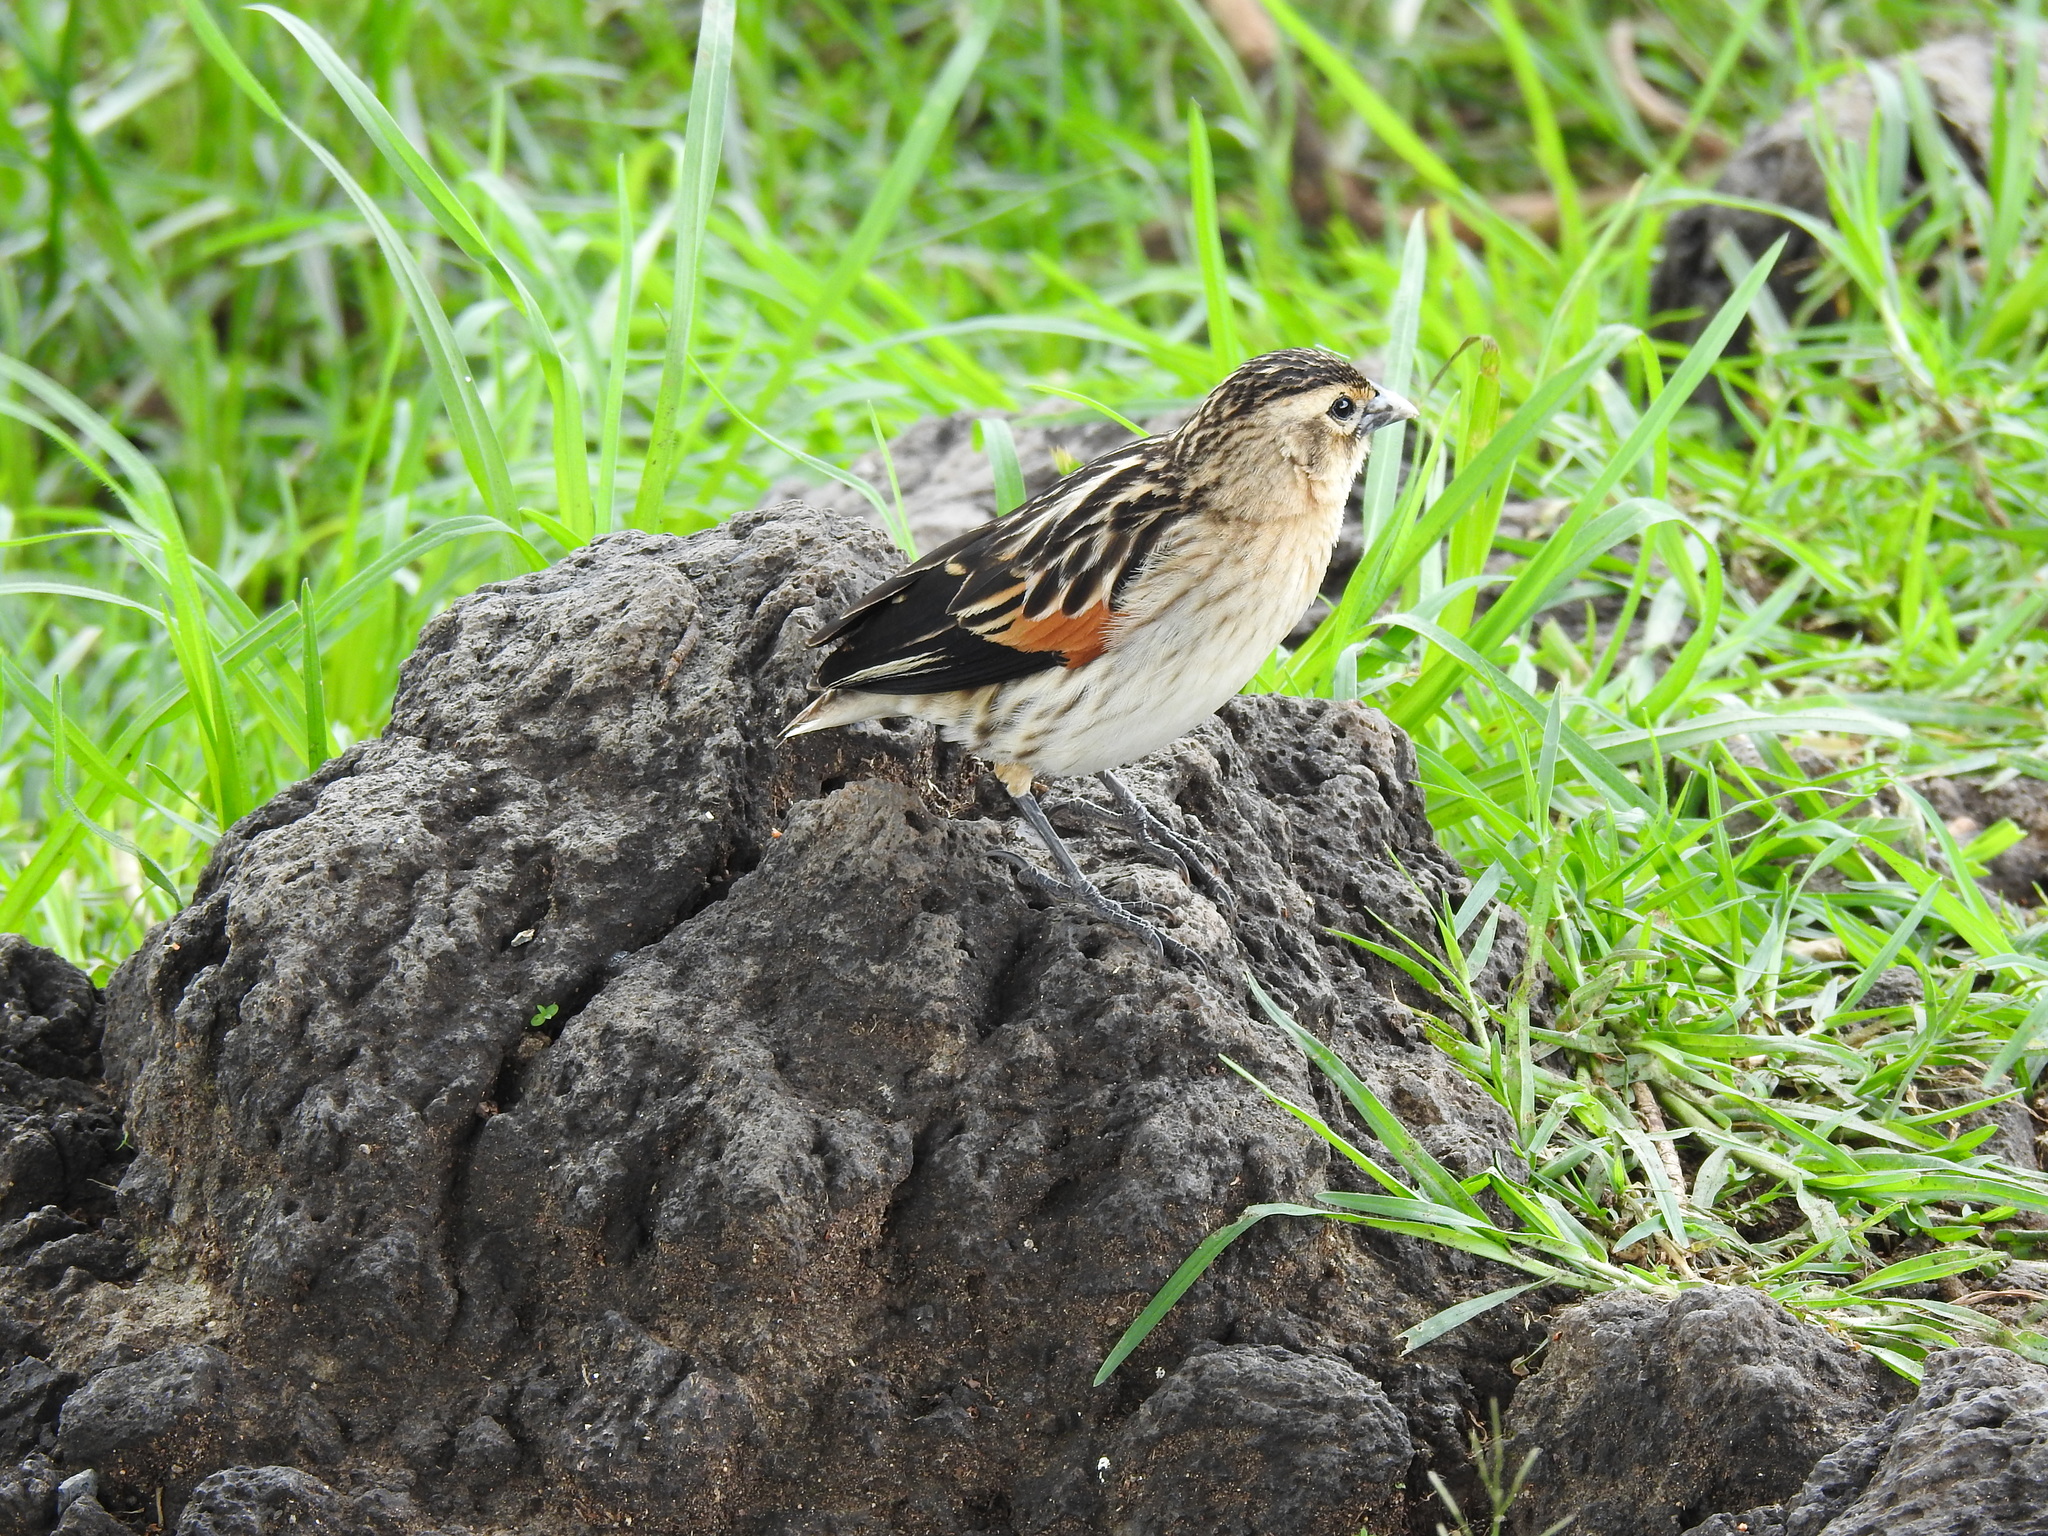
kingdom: Animalia
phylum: Chordata
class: Aves
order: Passeriformes
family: Ploceidae
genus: Euplectes
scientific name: Euplectes axillaris
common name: Fan-tailed widowbird
